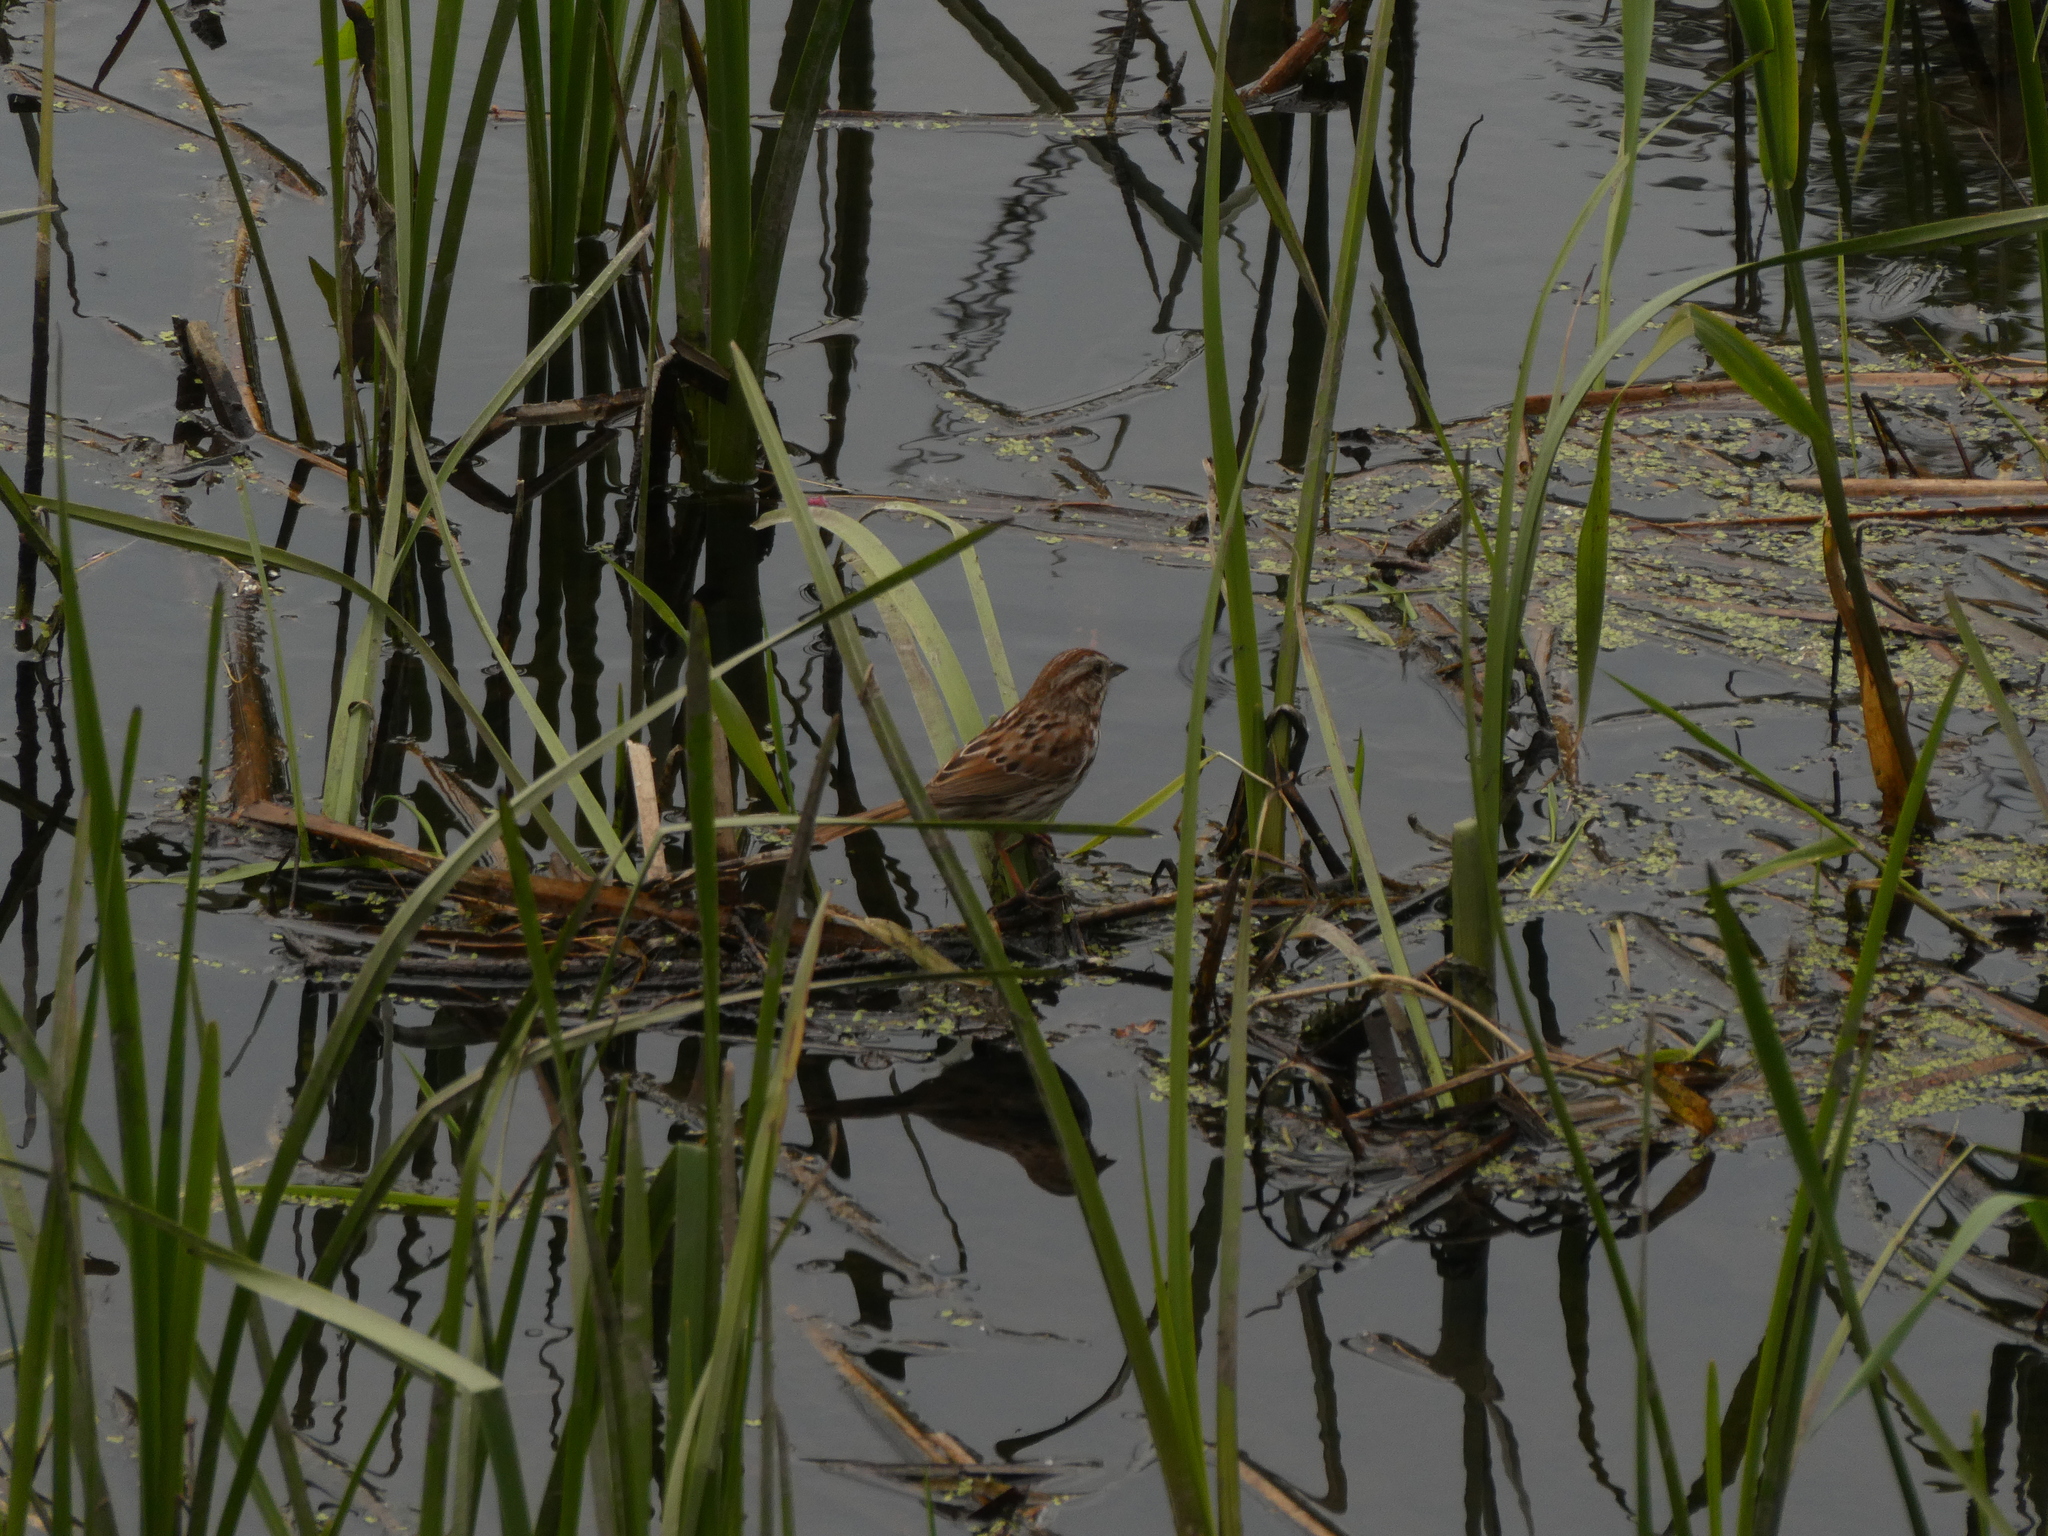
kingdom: Animalia
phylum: Chordata
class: Aves
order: Passeriformes
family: Passerellidae
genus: Melospiza
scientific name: Melospiza melodia
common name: Song sparrow
